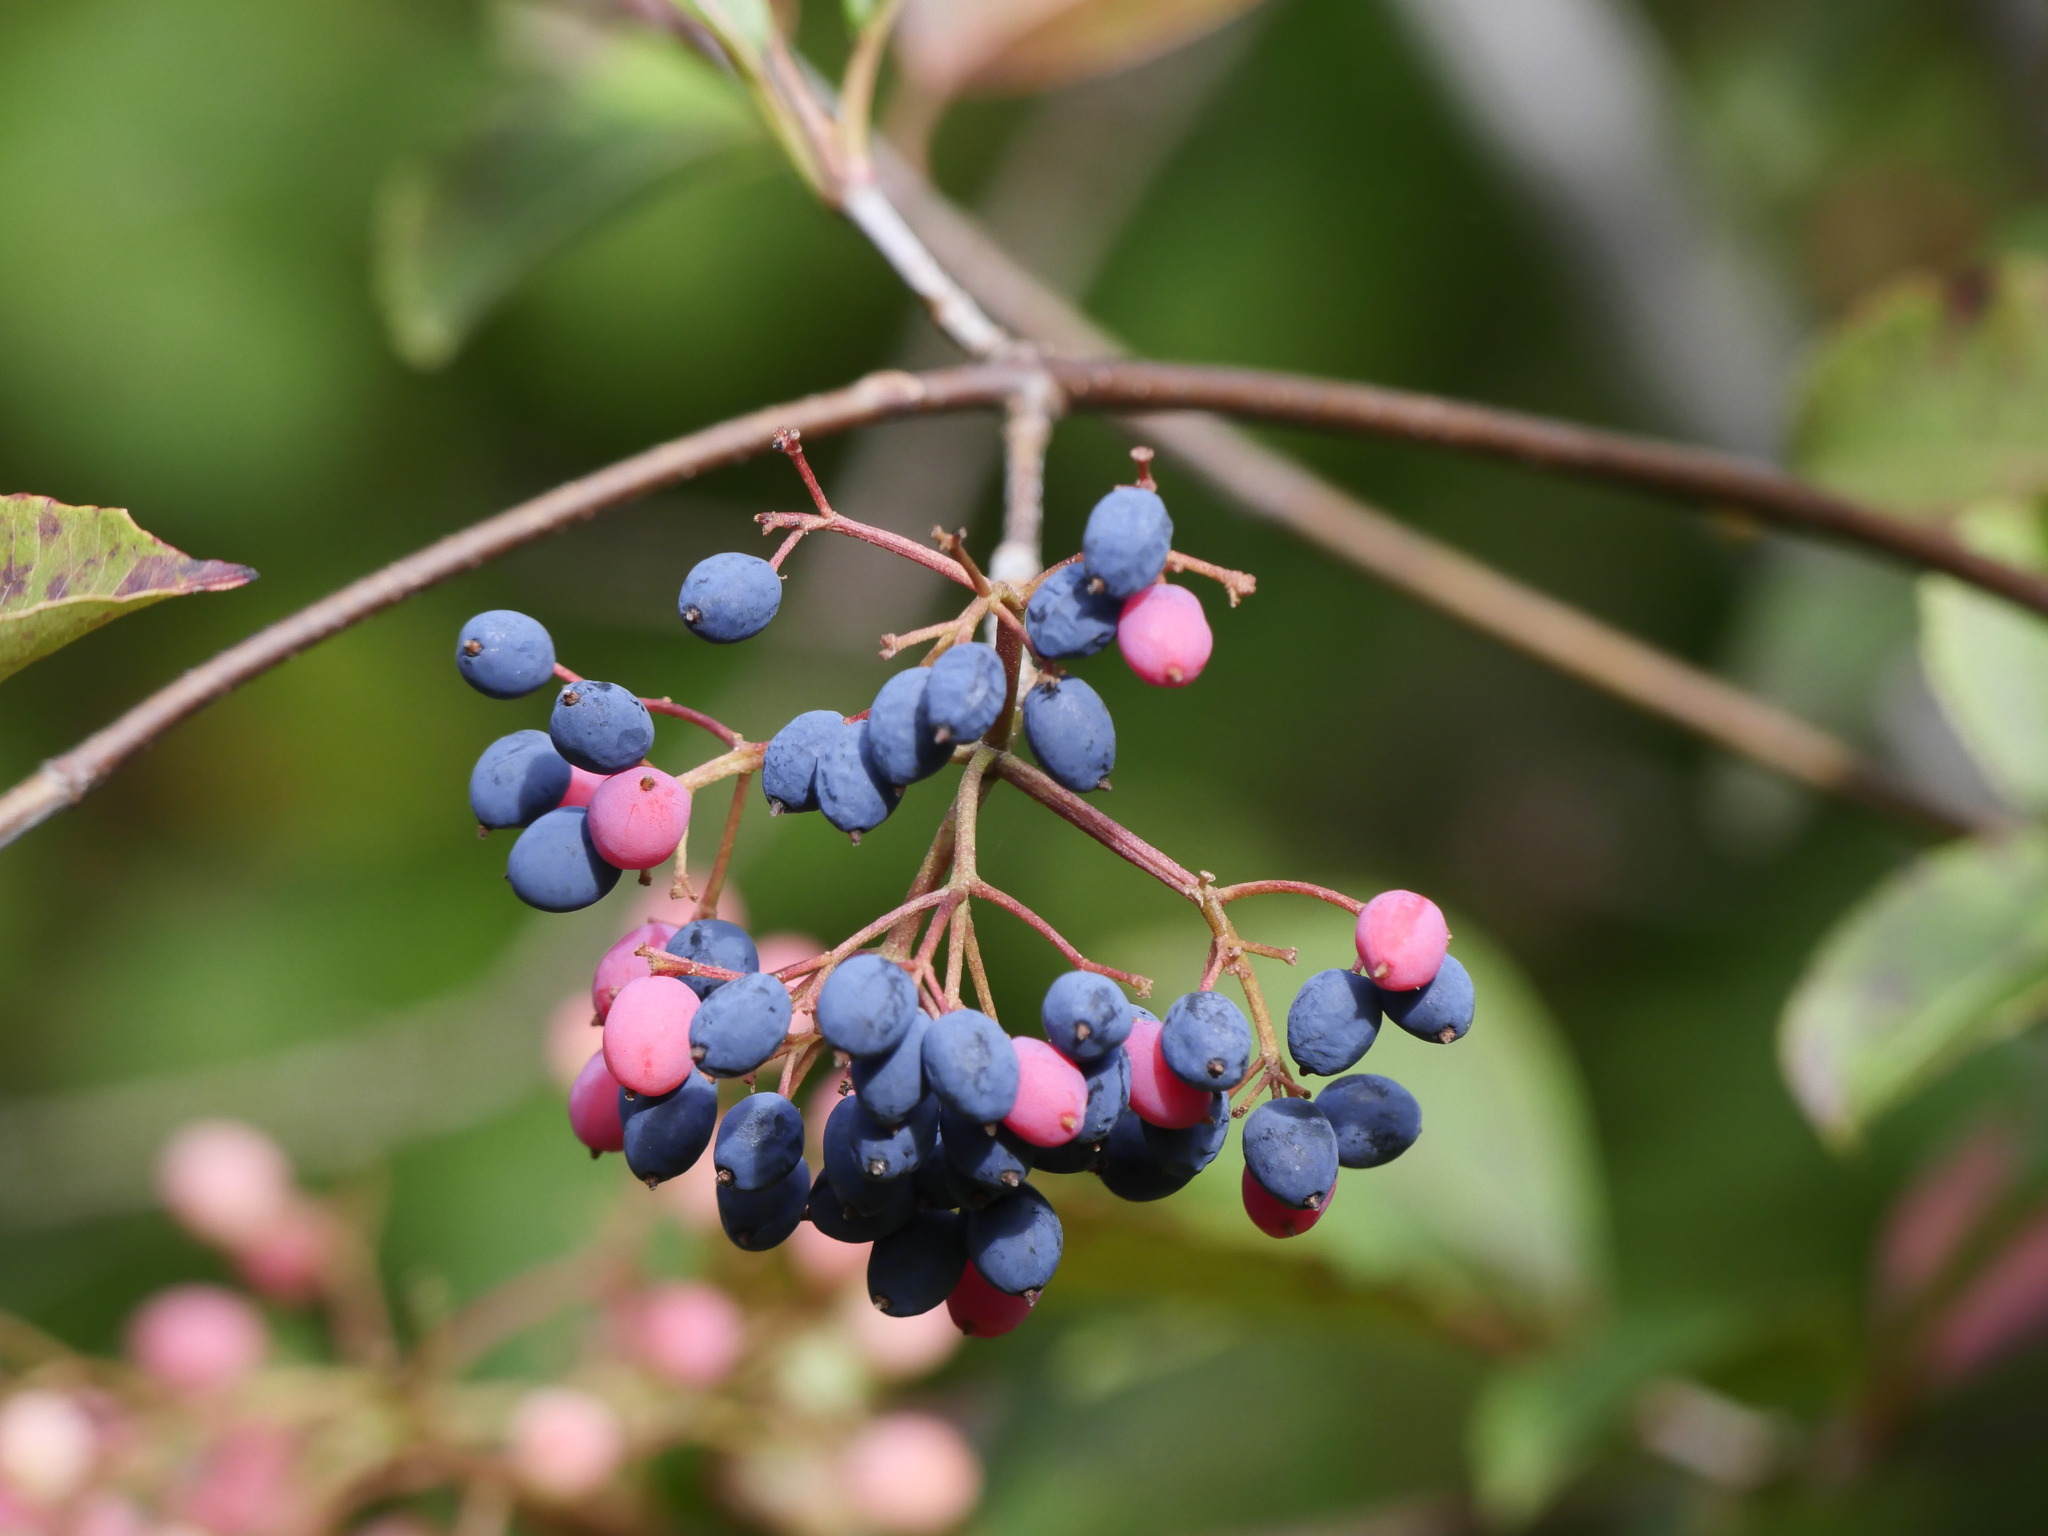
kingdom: Plantae
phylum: Tracheophyta
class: Magnoliopsida
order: Dipsacales
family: Viburnaceae
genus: Viburnum
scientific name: Viburnum cassinoides
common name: Swamp haw
